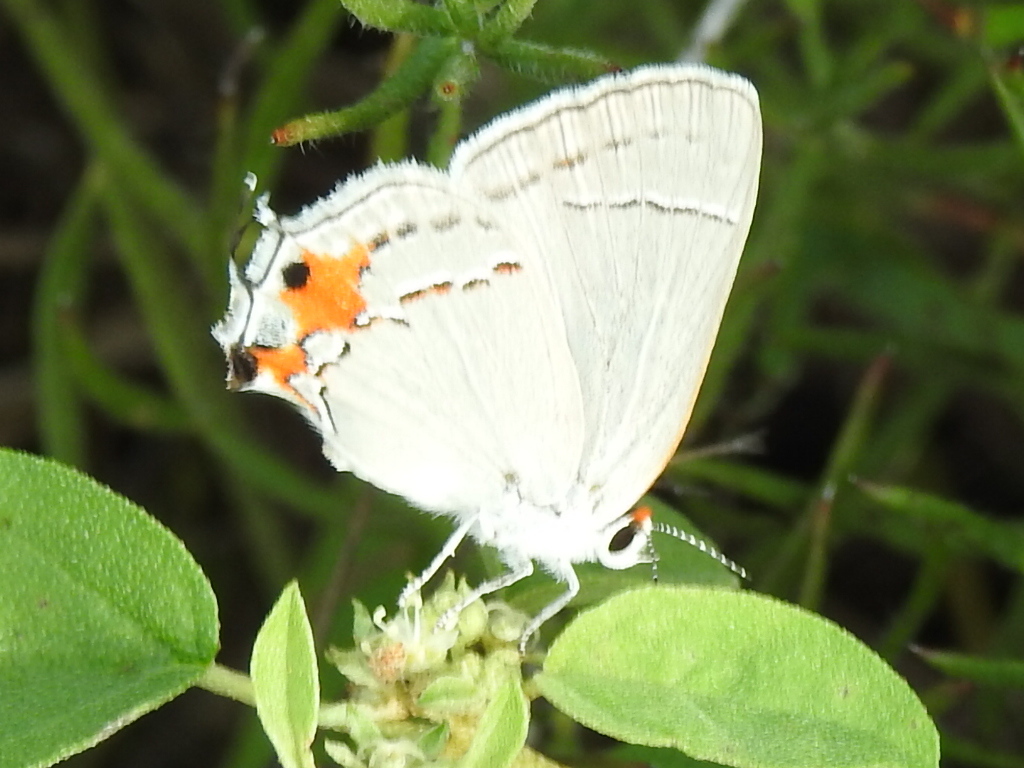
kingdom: Animalia
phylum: Arthropoda
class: Insecta
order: Lepidoptera
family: Lycaenidae
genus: Strymon
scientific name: Strymon melinus
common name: Gray hairstreak
